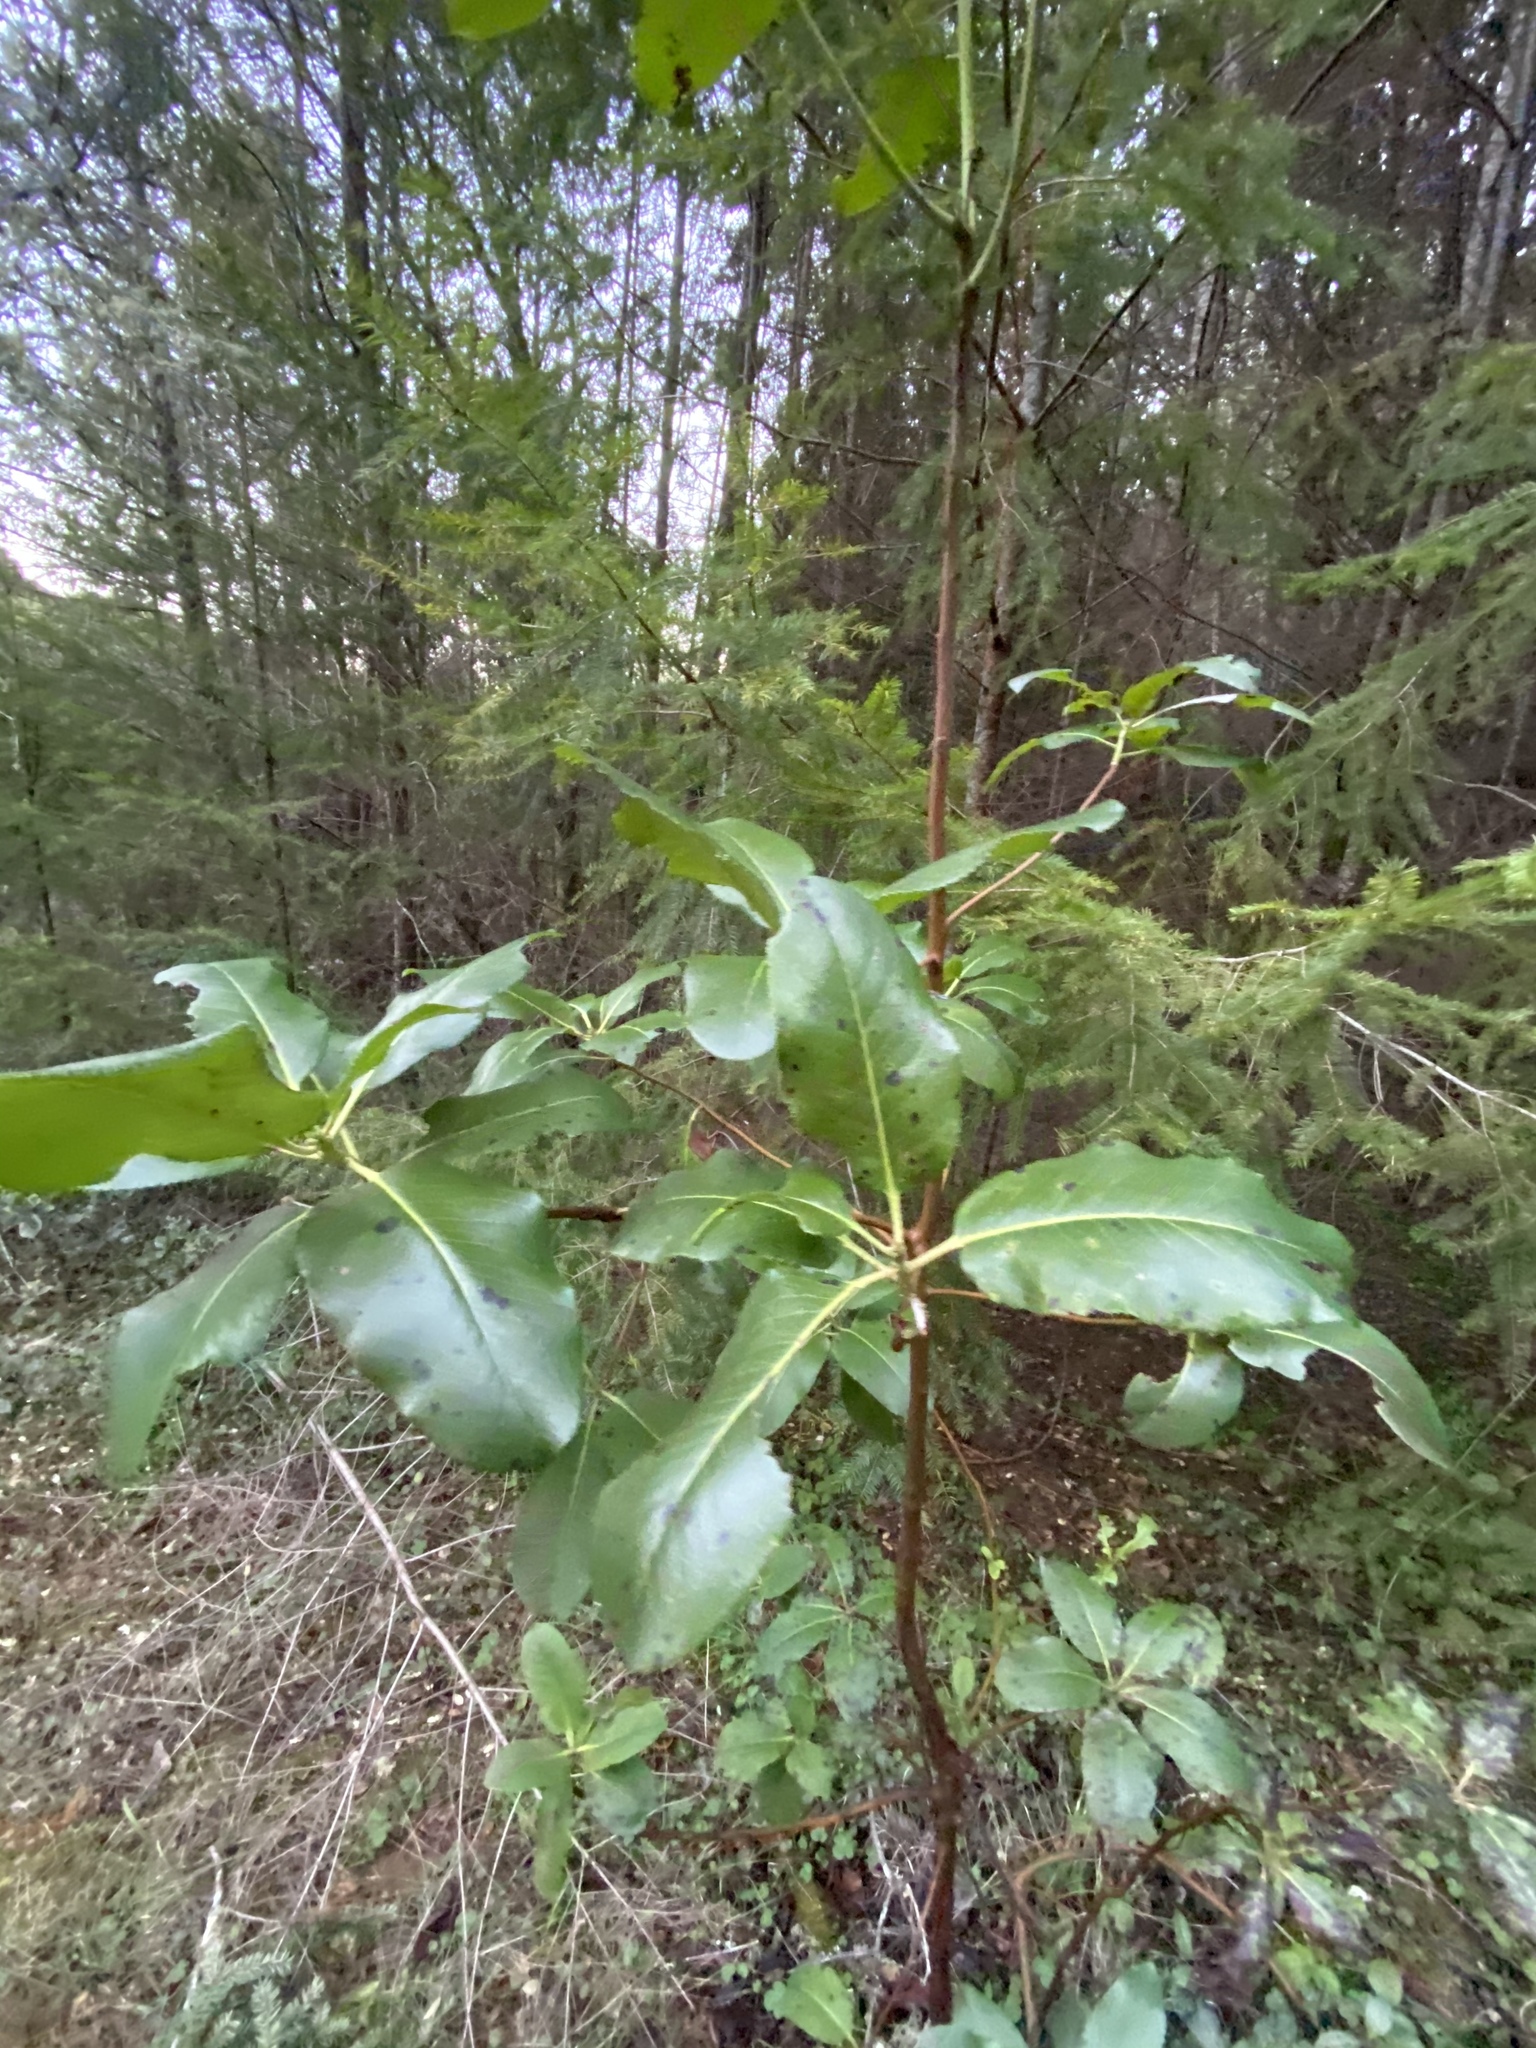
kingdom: Plantae
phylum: Tracheophyta
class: Magnoliopsida
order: Ericales
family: Ericaceae
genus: Arbutus
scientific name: Arbutus menziesii
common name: Pacific madrone
